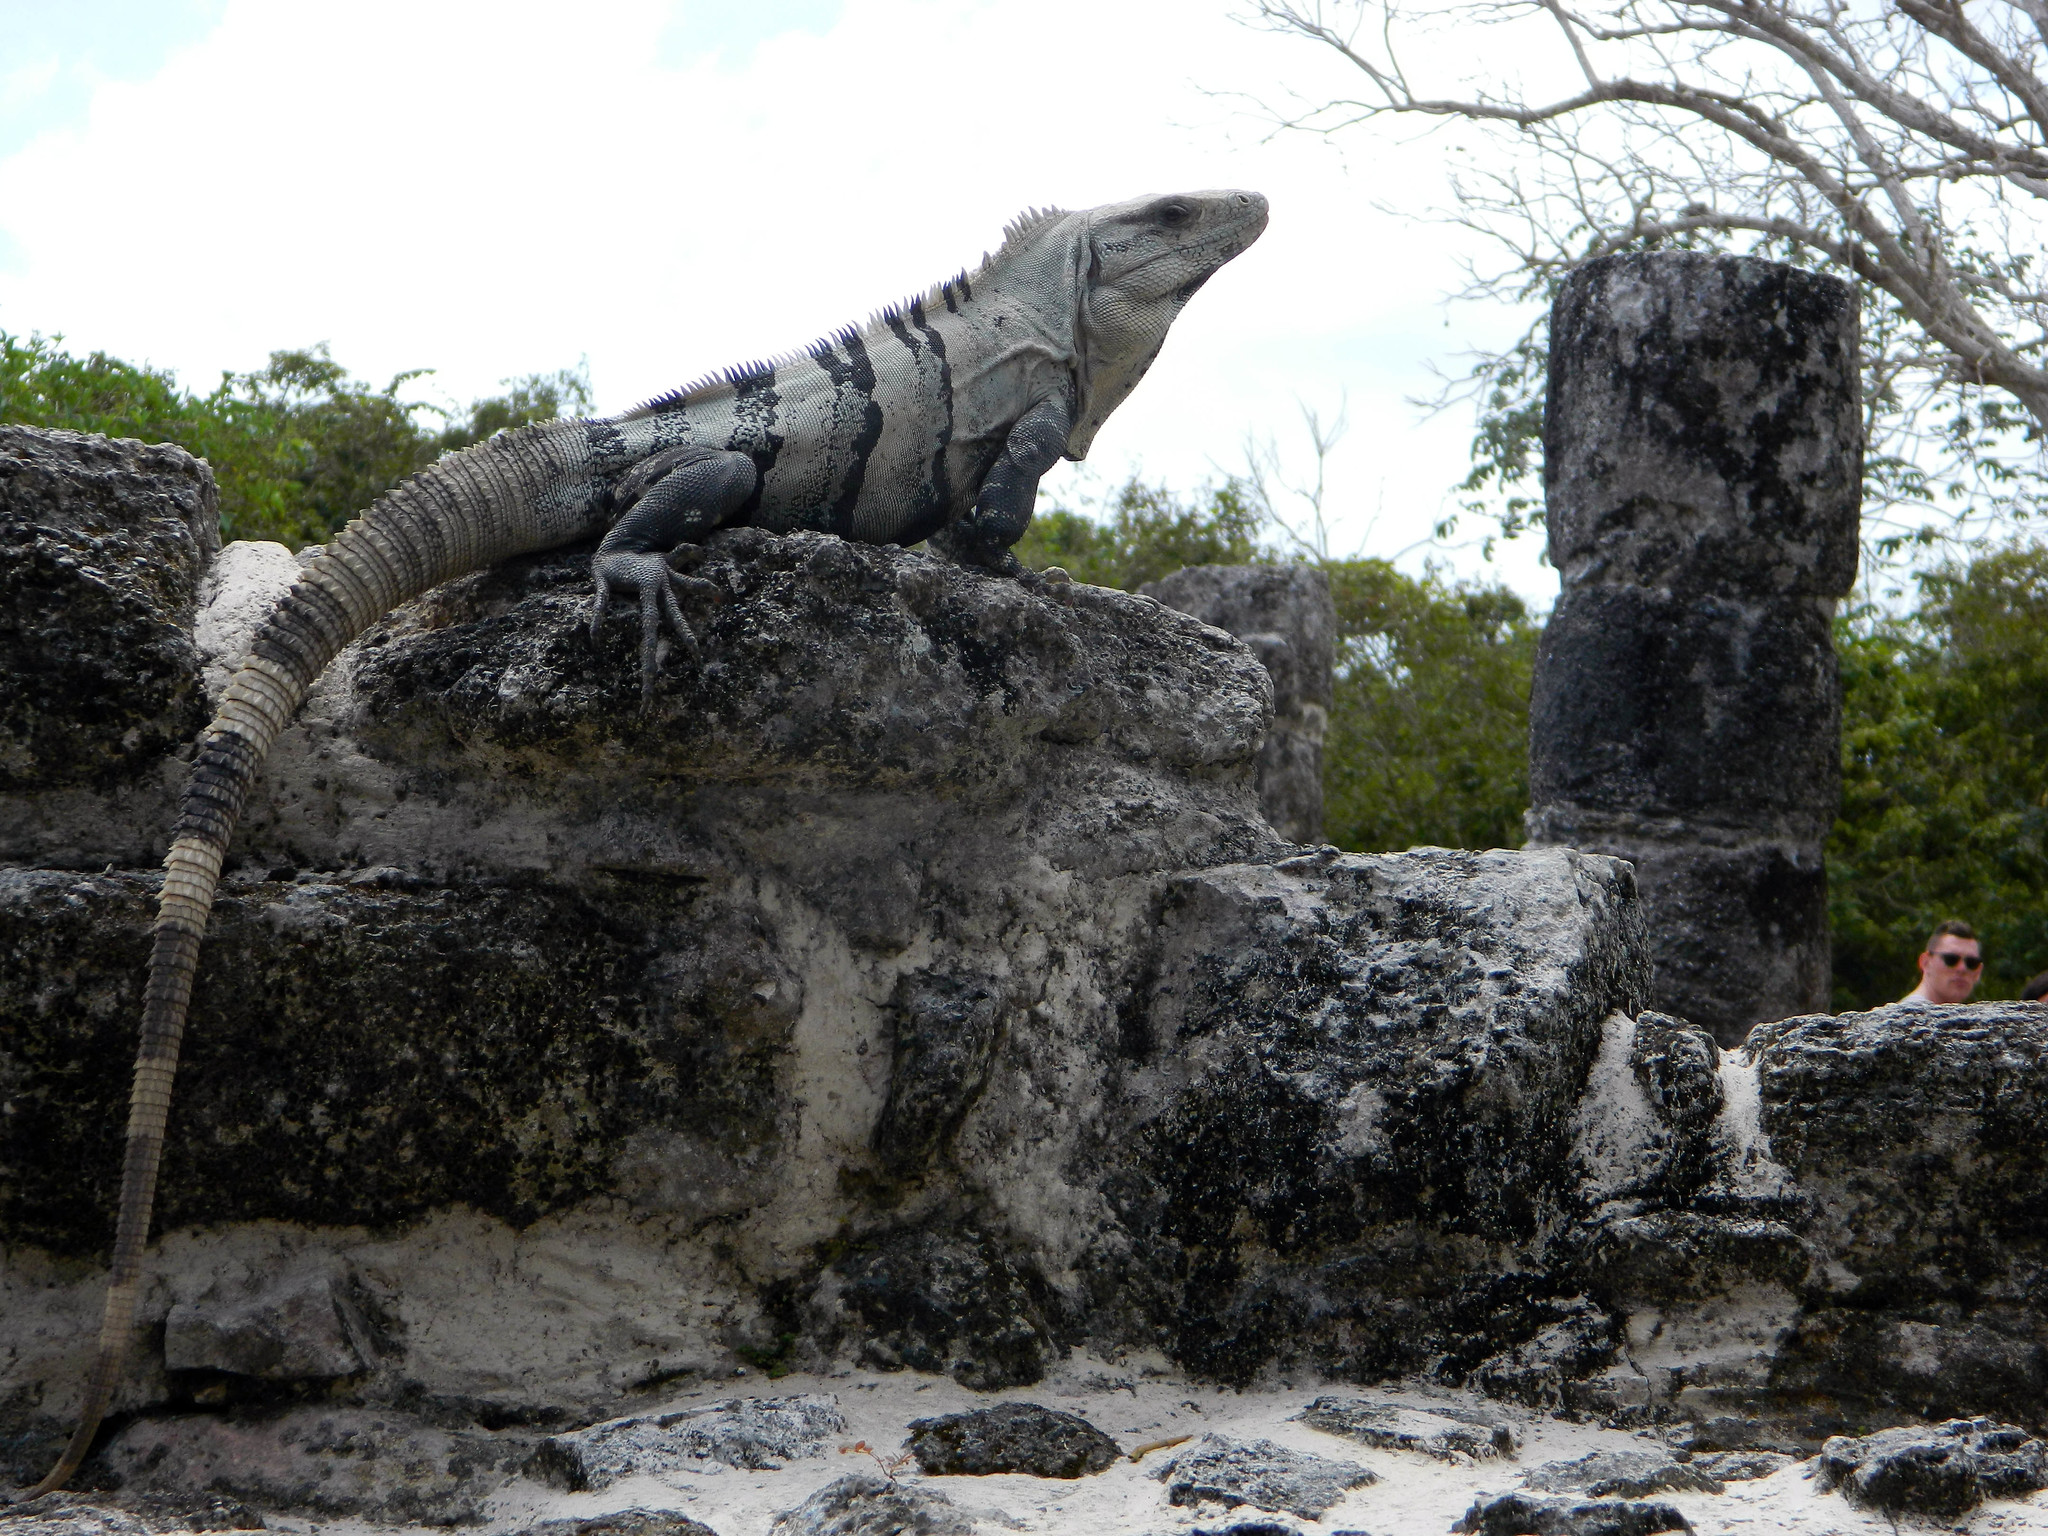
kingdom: Animalia
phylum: Chordata
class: Squamata
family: Iguanidae
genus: Ctenosaura
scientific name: Ctenosaura similis
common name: Black spiny-tailed iguana
